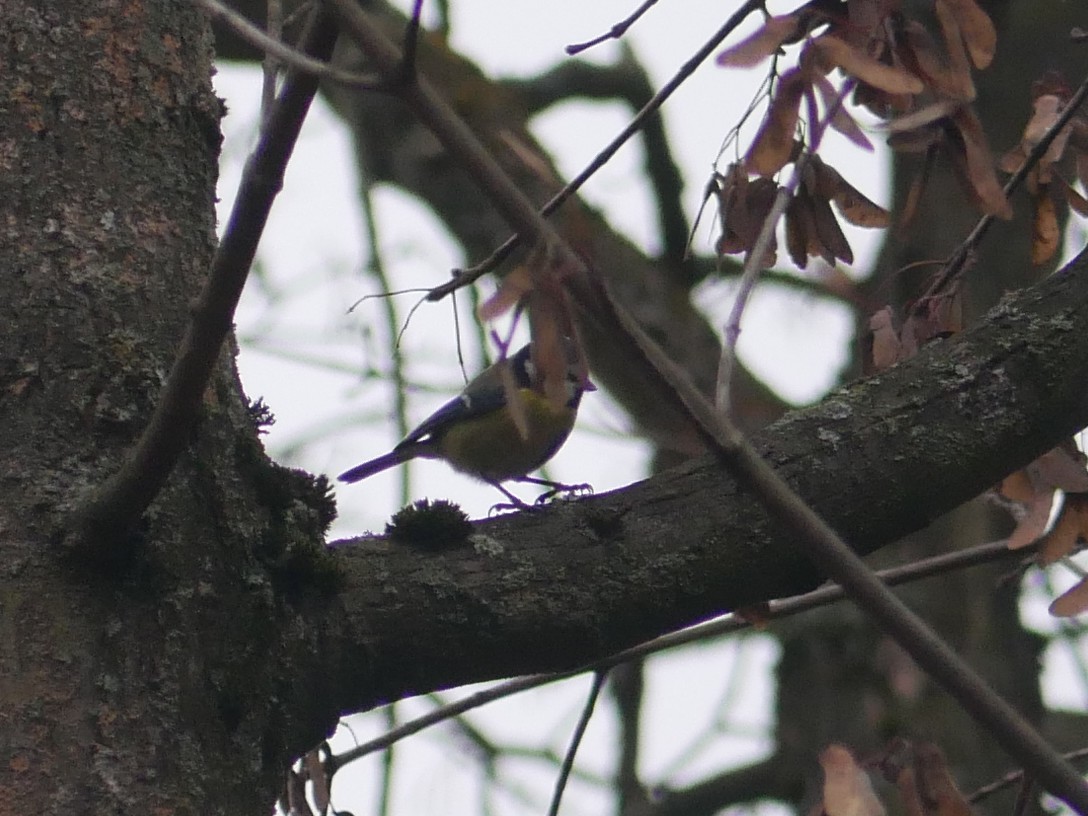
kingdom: Animalia
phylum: Chordata
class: Aves
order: Passeriformes
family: Paridae
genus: Cyanistes
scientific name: Cyanistes caeruleus
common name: Eurasian blue tit
